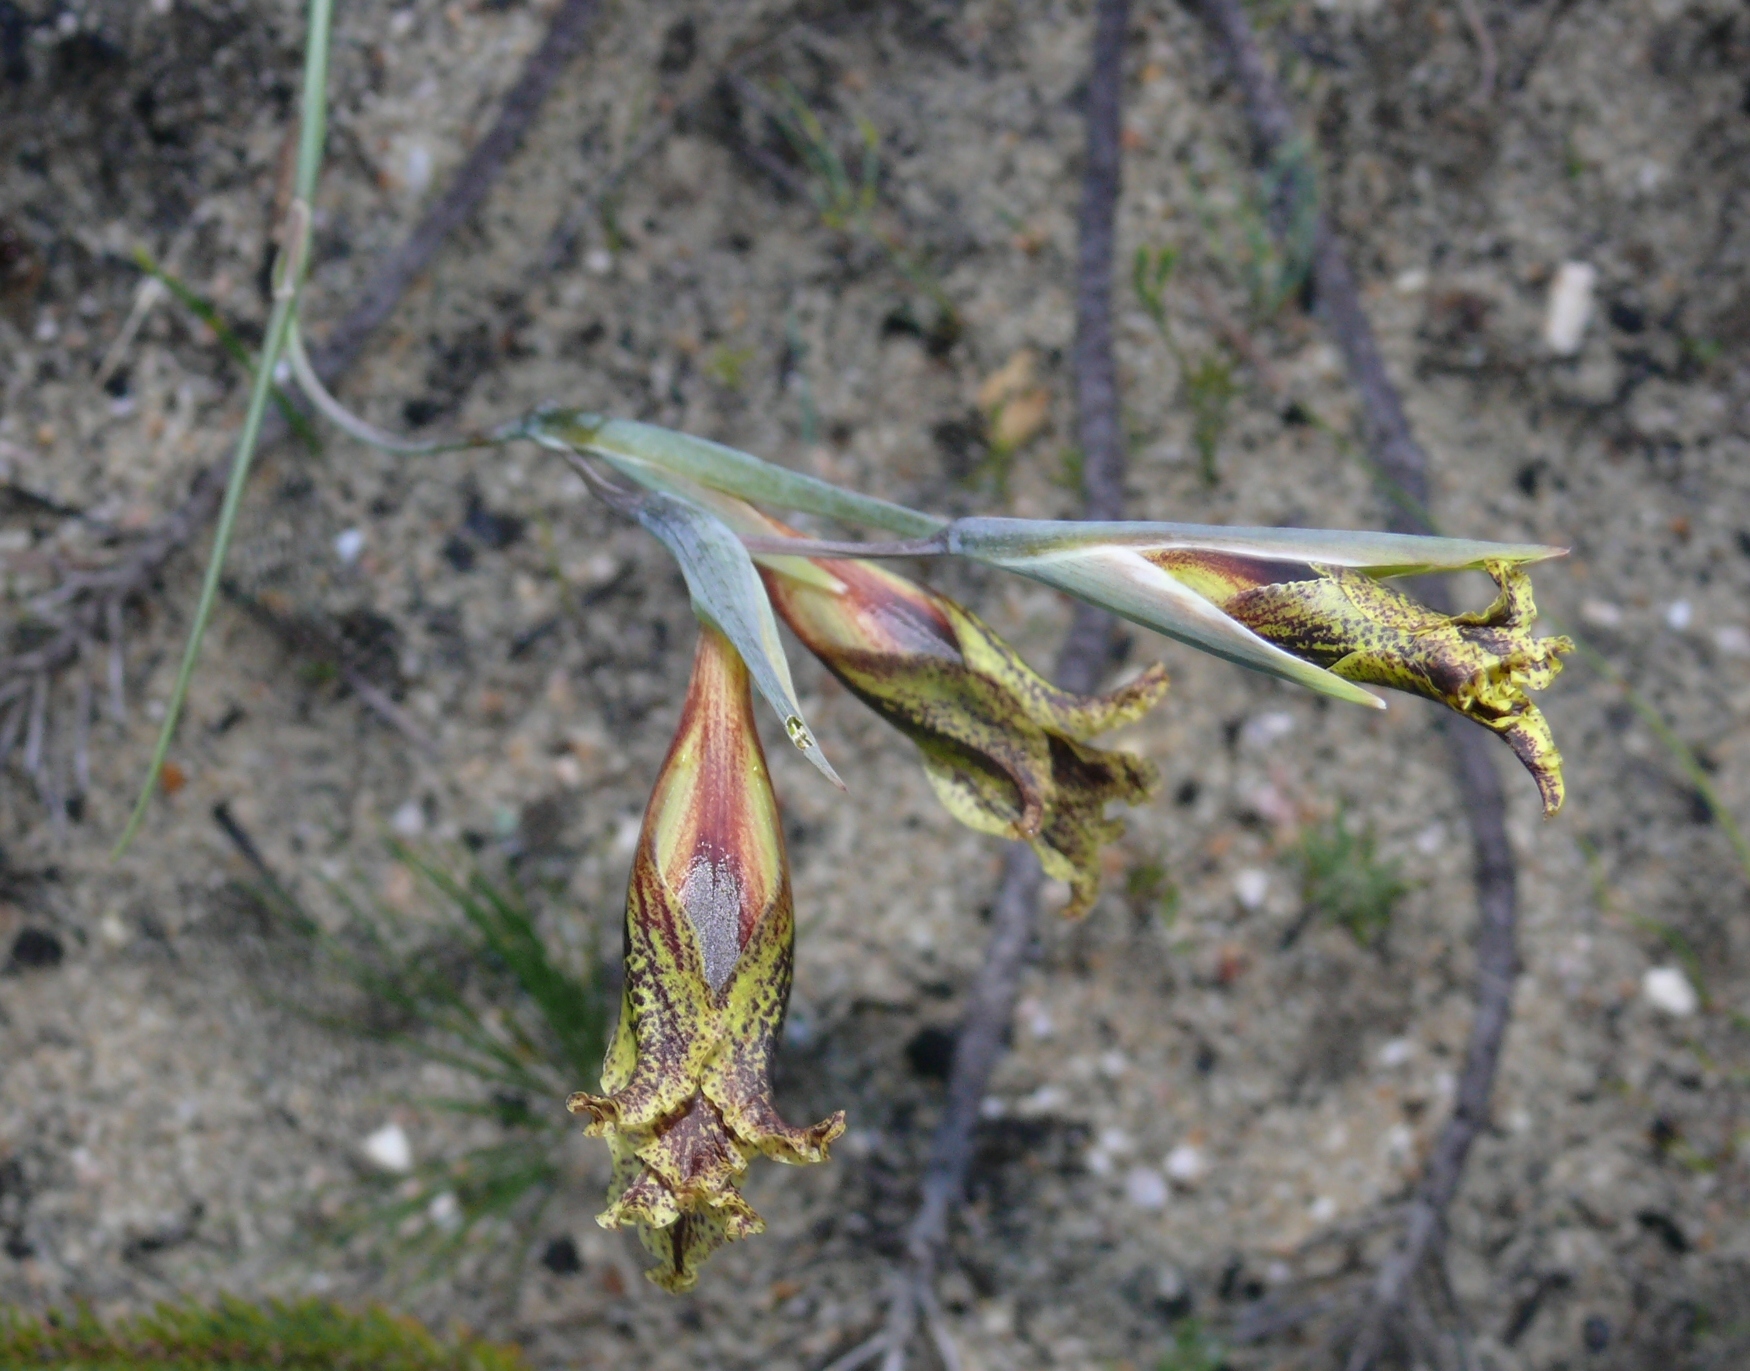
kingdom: Plantae
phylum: Tracheophyta
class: Liliopsida
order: Asparagales
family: Iridaceae
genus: Gladiolus
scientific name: Gladiolus maculatus
